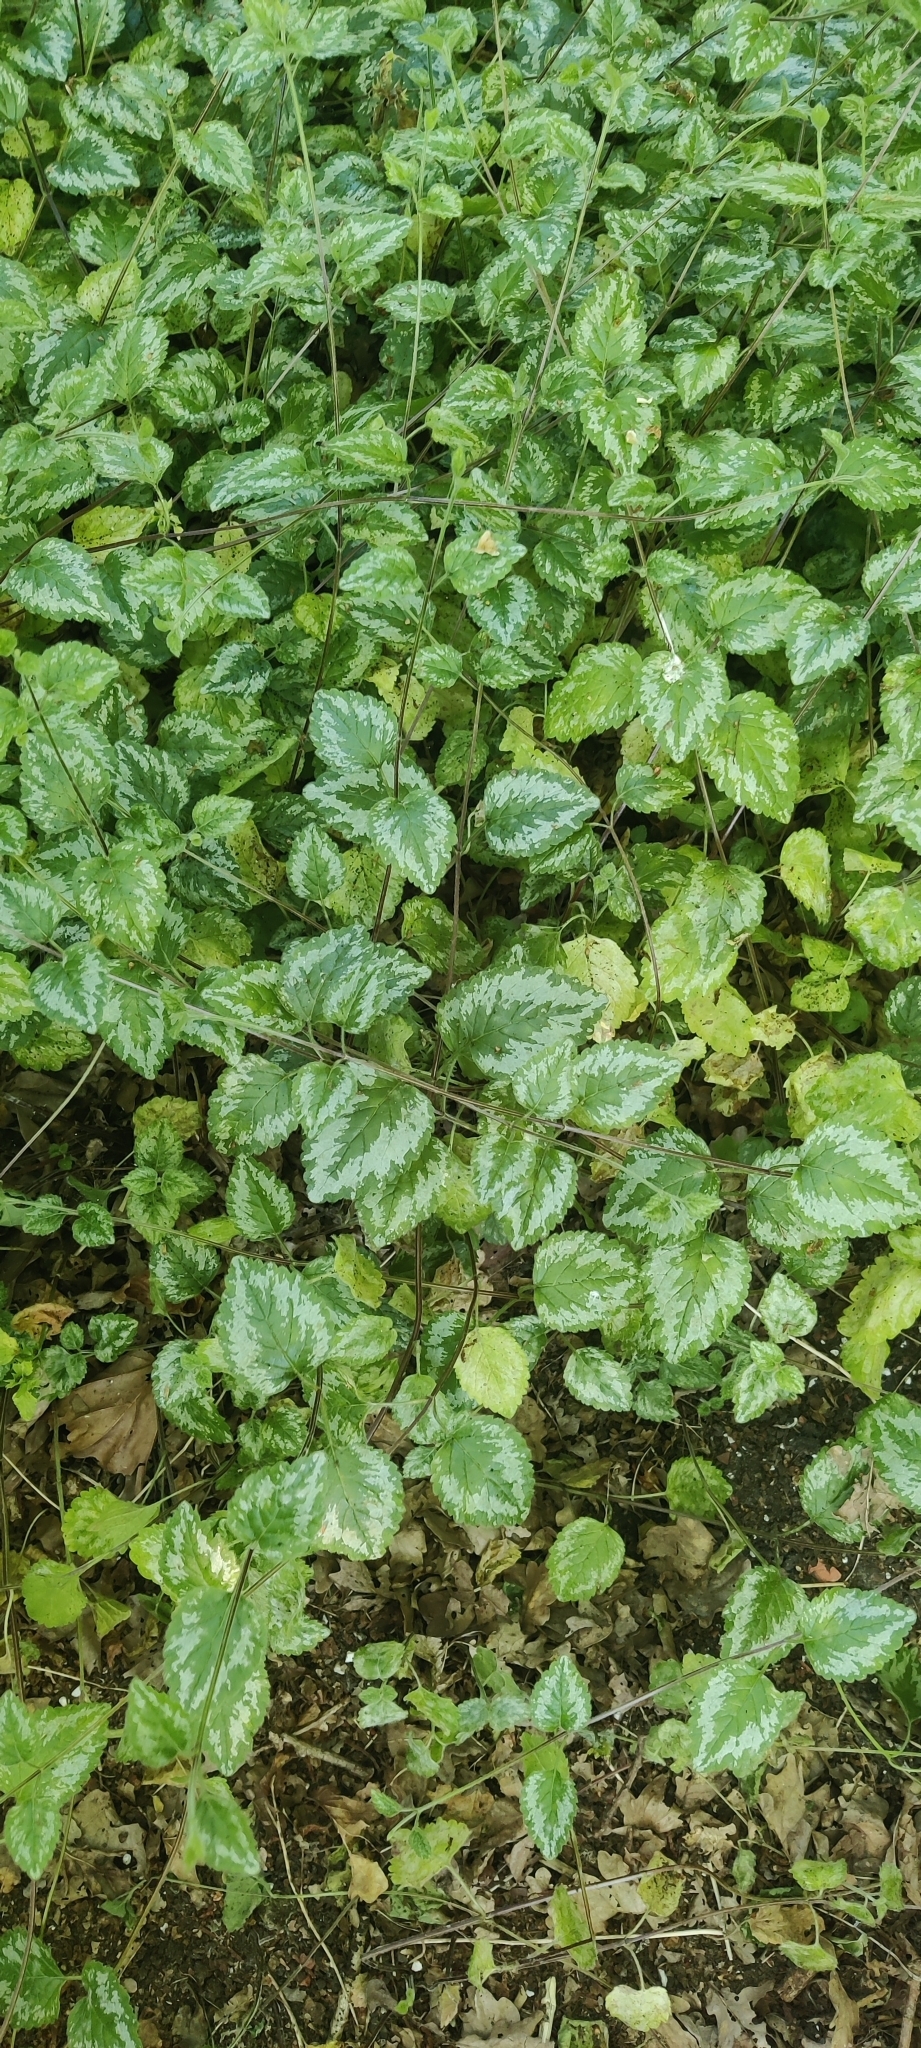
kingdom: Plantae
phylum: Tracheophyta
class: Magnoliopsida
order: Lamiales
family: Lamiaceae
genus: Lamium
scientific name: Lamium galeobdolon
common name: Yellow archangel
